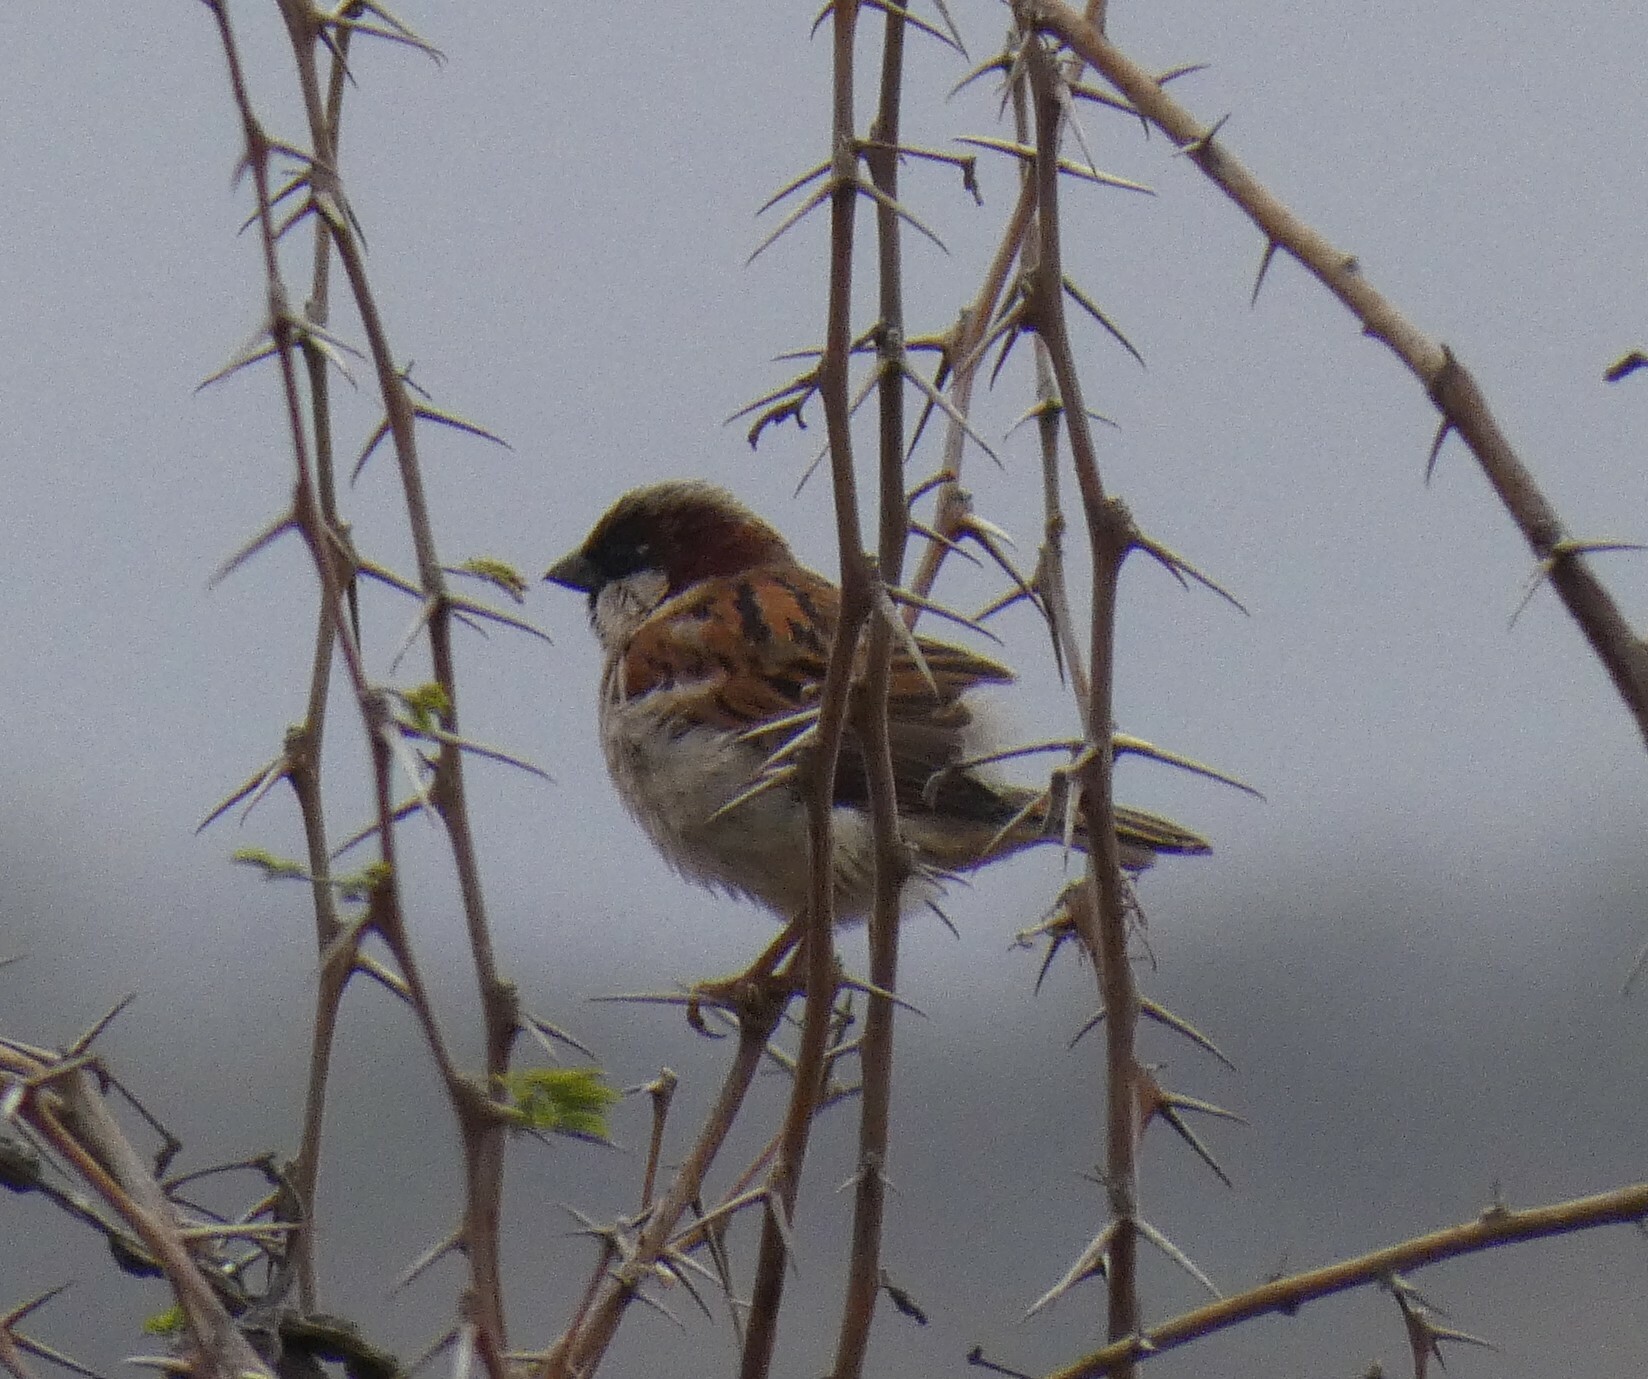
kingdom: Animalia
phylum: Chordata
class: Aves
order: Passeriformes
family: Passeridae
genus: Passer
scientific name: Passer domesticus
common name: House sparrow
